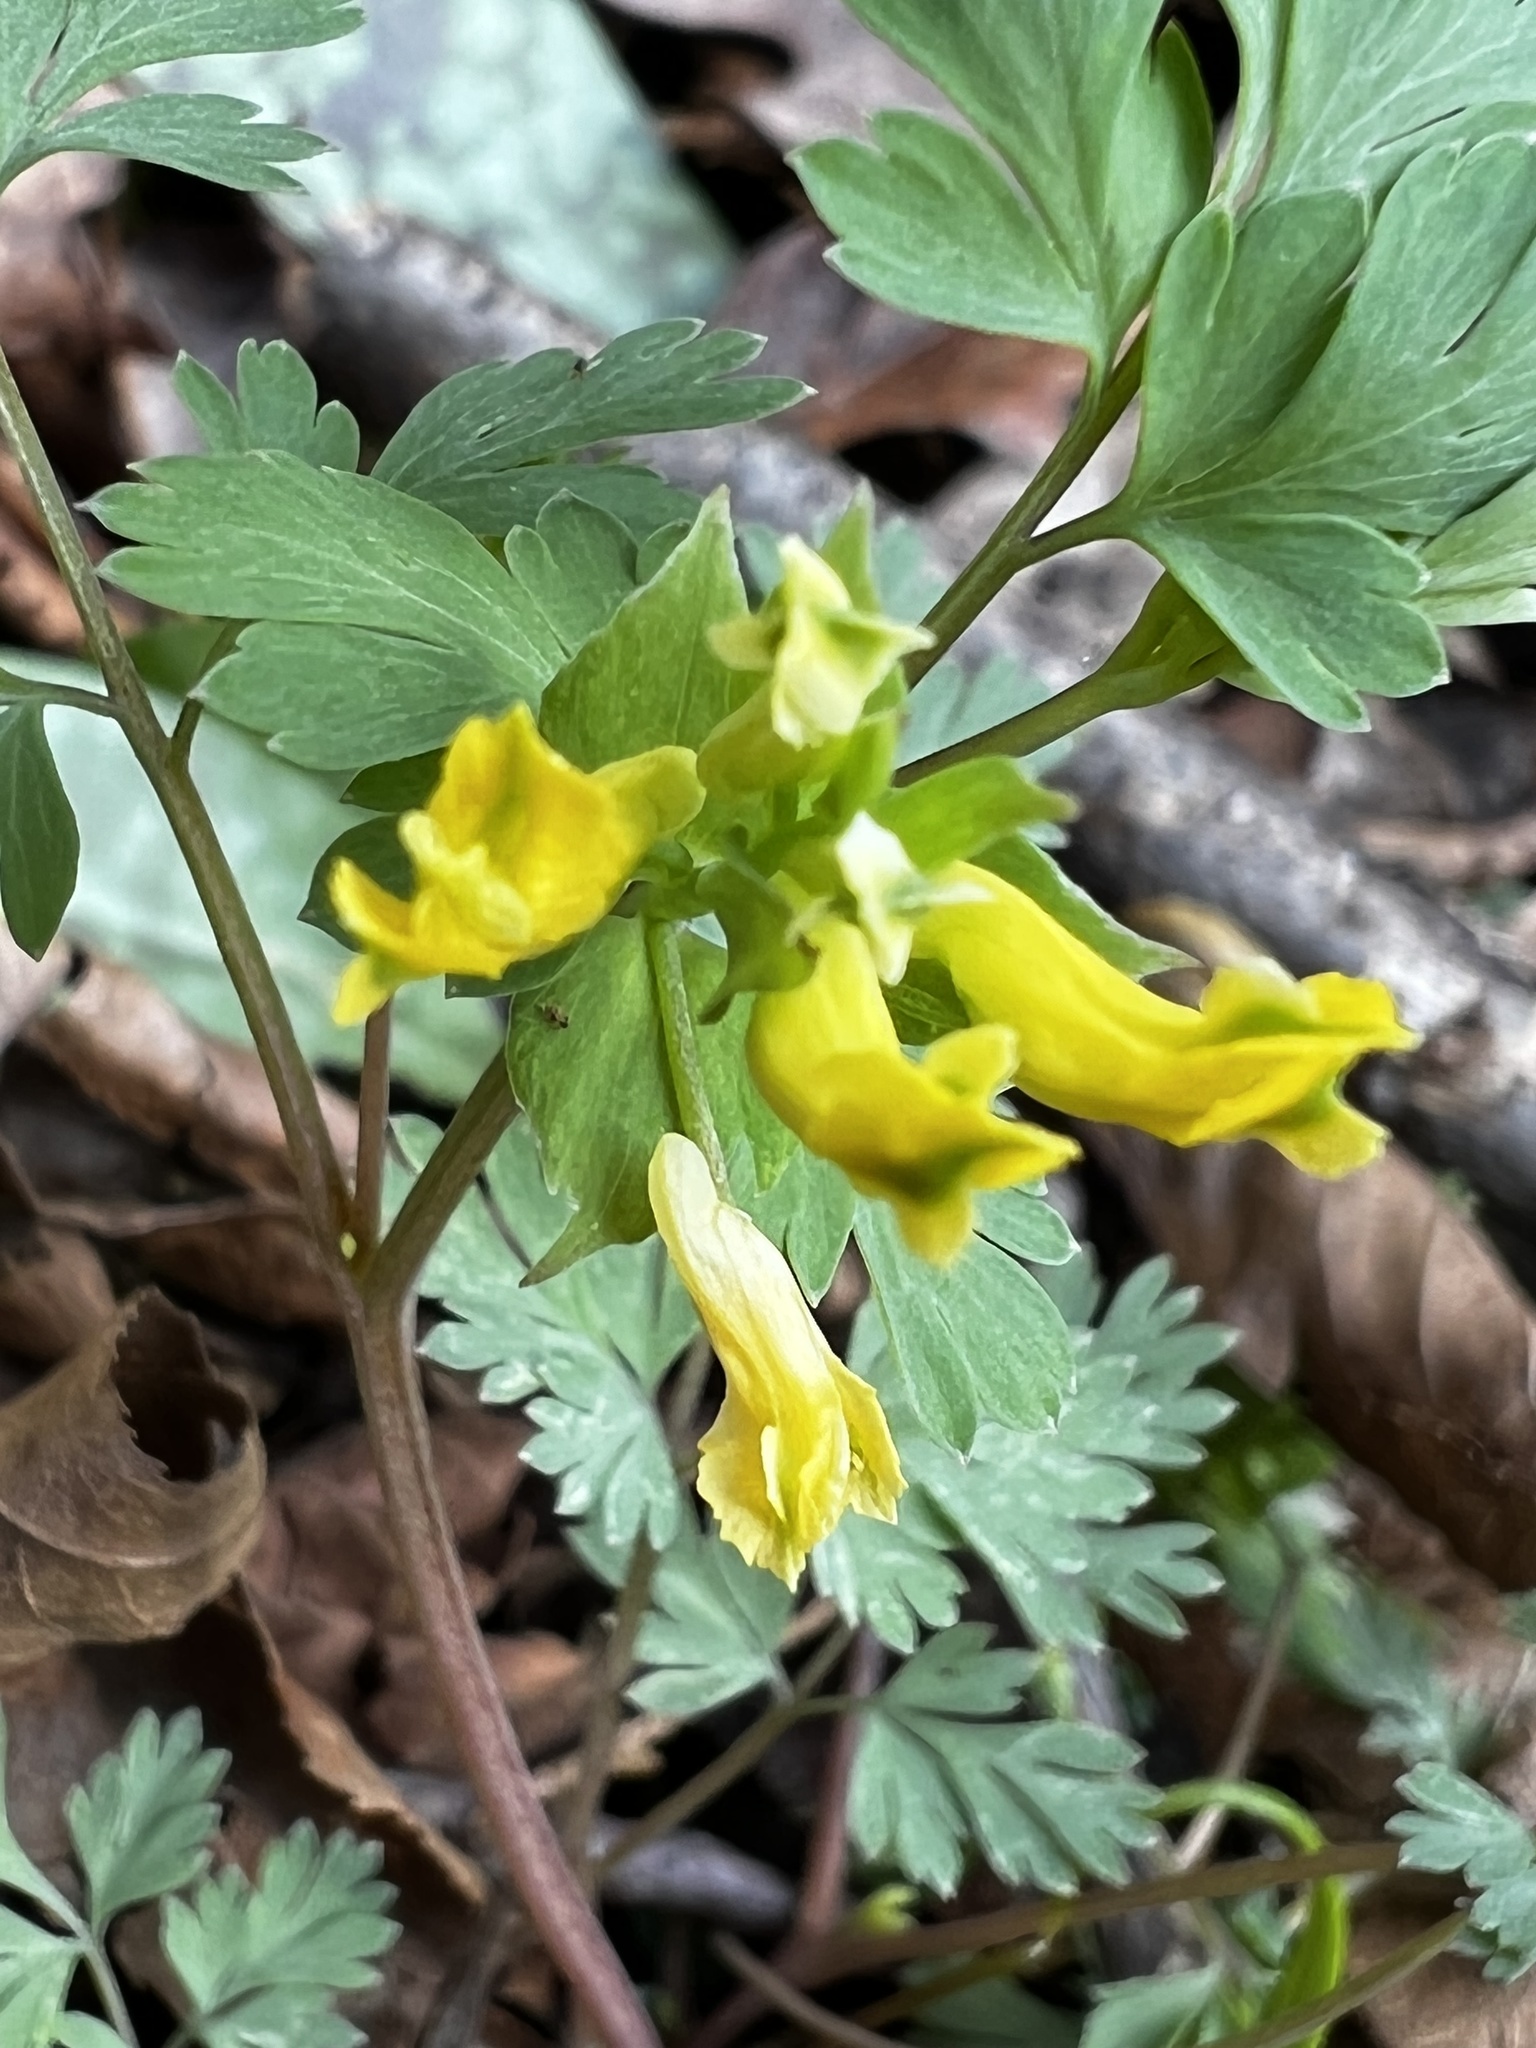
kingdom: Plantae
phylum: Tracheophyta
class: Magnoliopsida
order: Ranunculales
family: Papaveraceae
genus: Corydalis
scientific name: Corydalis flavula
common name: Yellow corydalis
